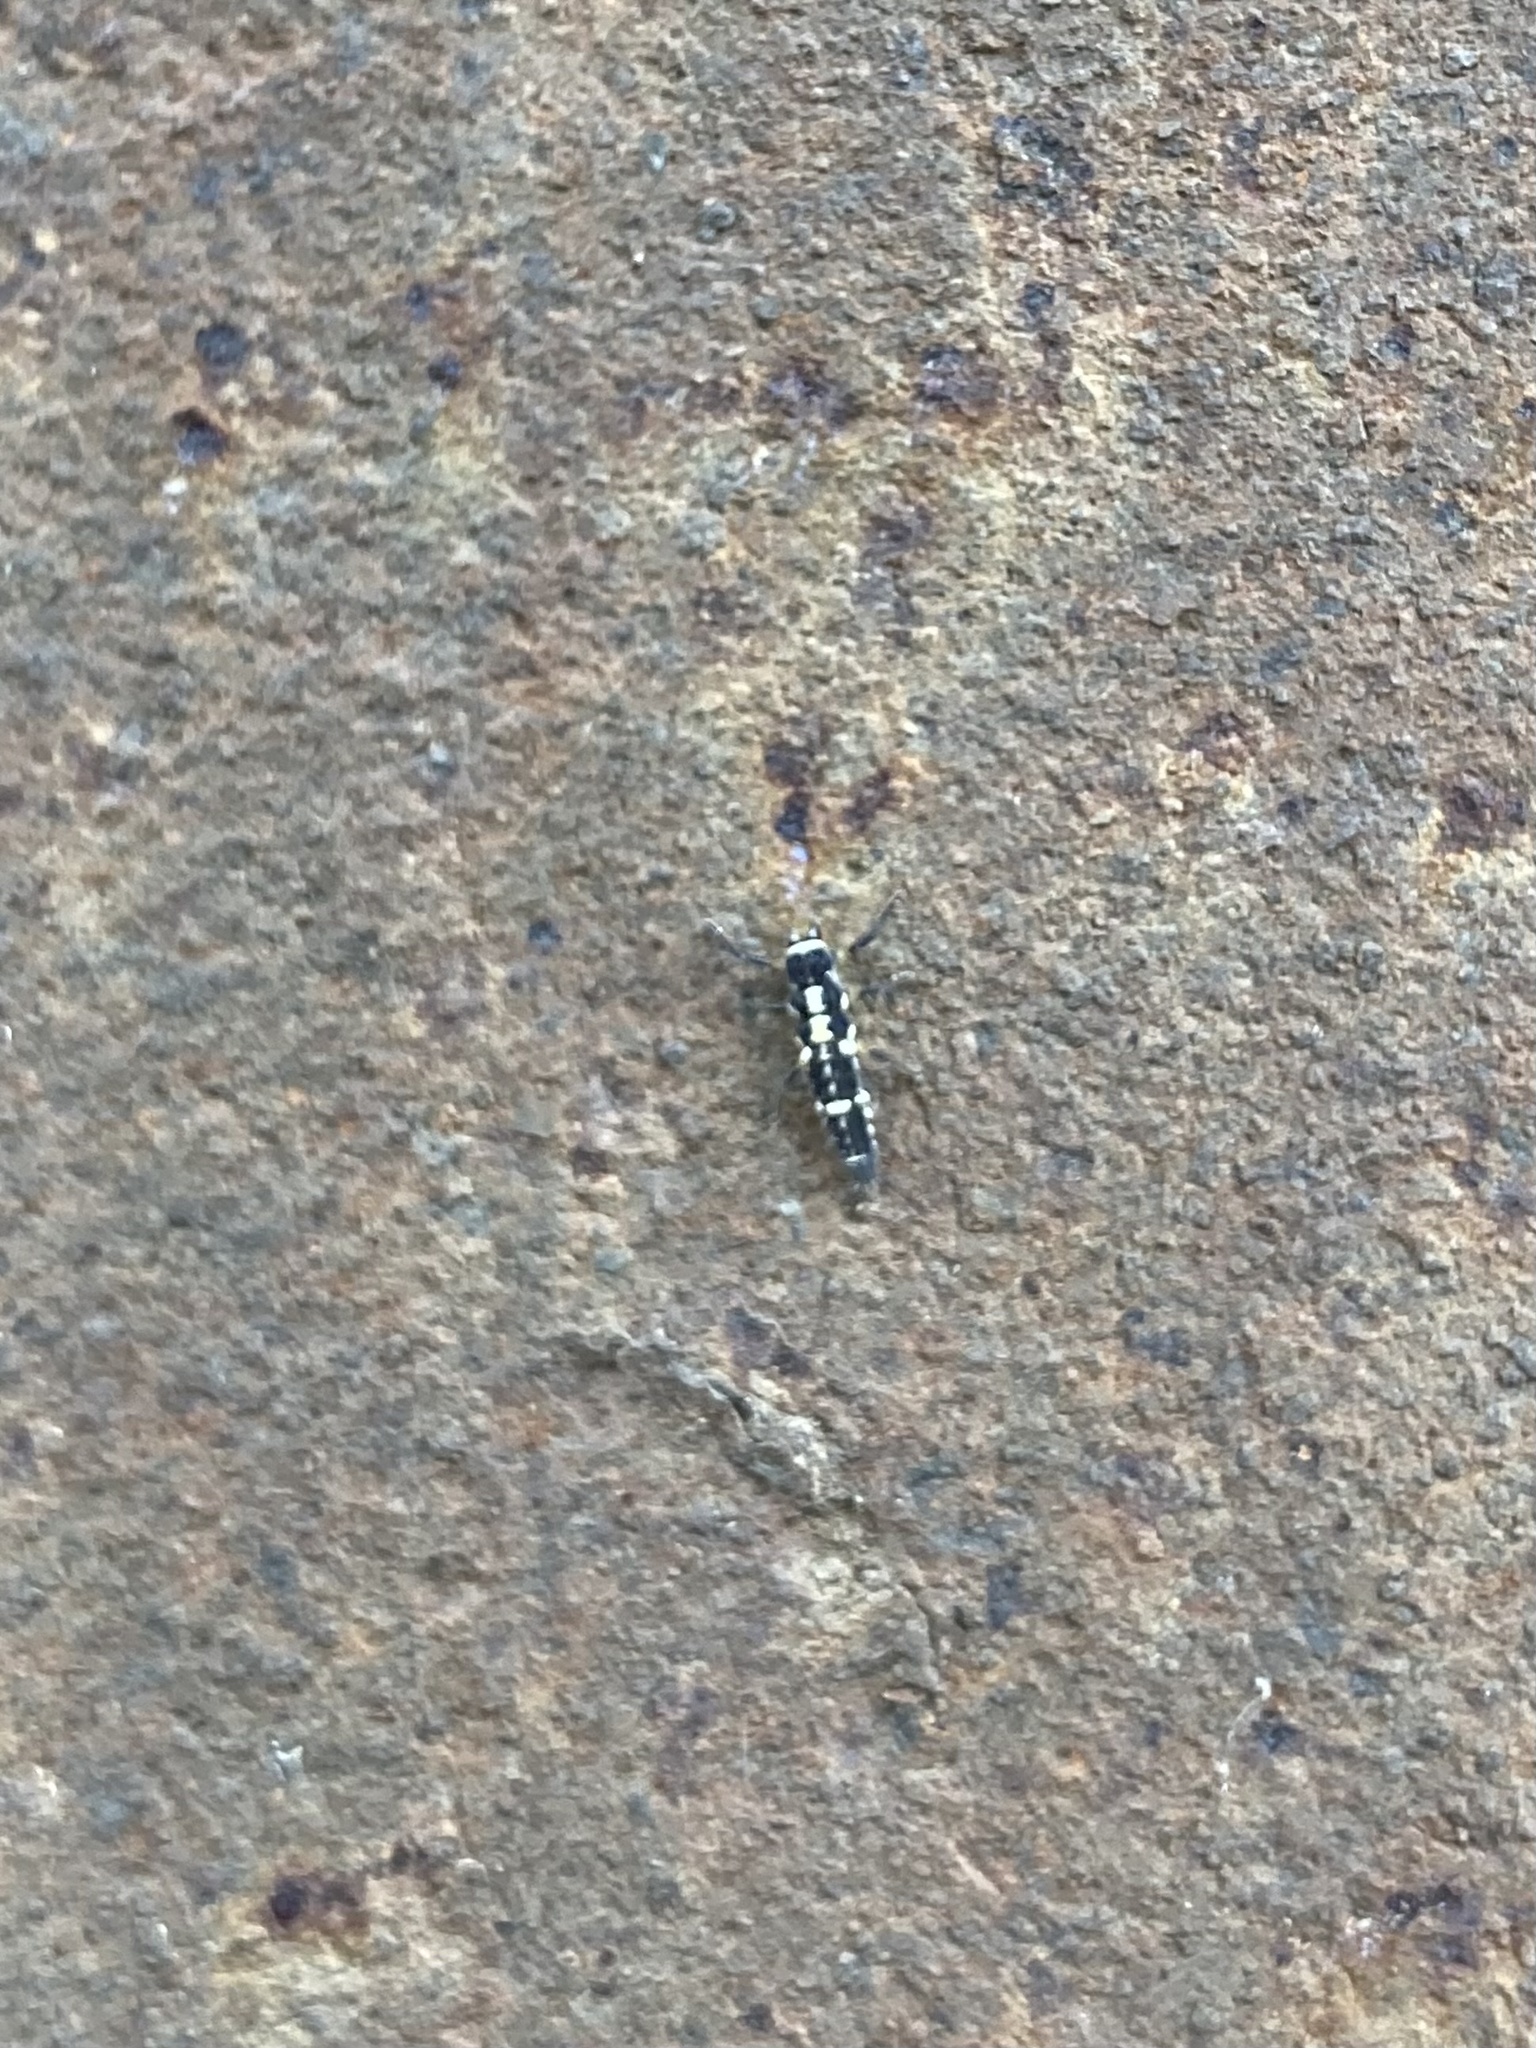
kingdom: Animalia
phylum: Arthropoda
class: Insecta
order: Coleoptera
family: Coccinellidae
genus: Propylaea
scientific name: Propylaea quatuordecimpunctata
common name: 14-spotted ladybird beetle
